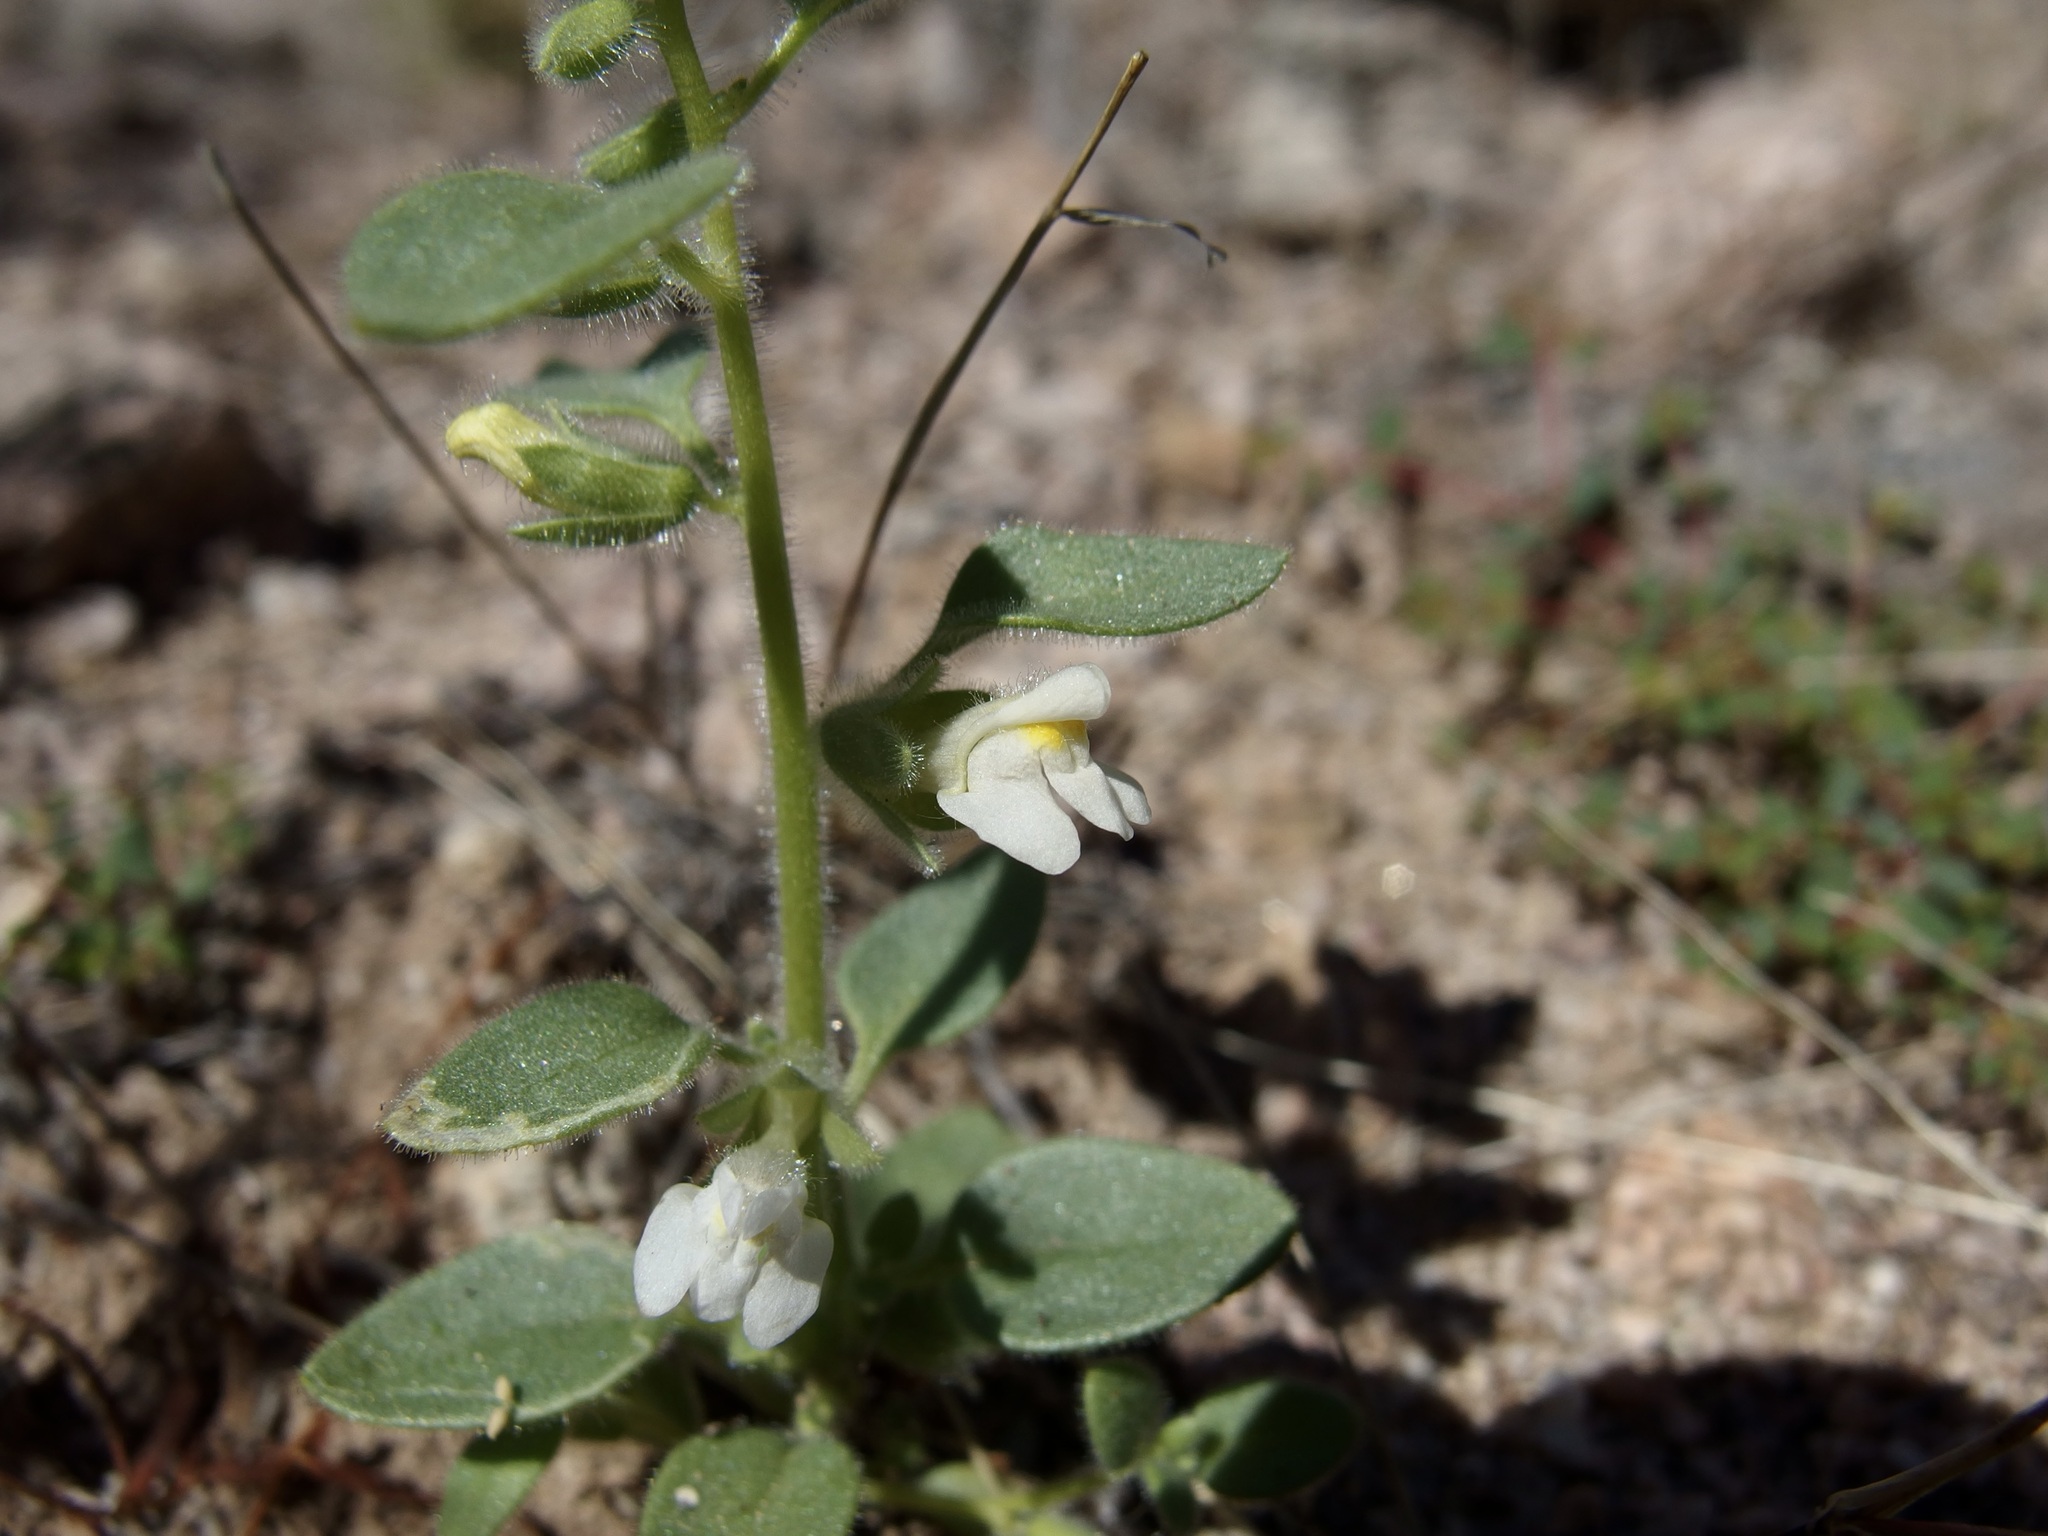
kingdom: Plantae
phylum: Tracheophyta
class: Magnoliopsida
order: Lamiales
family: Plantaginaceae
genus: Pseudorontium
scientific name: Pseudorontium cyathiferum
